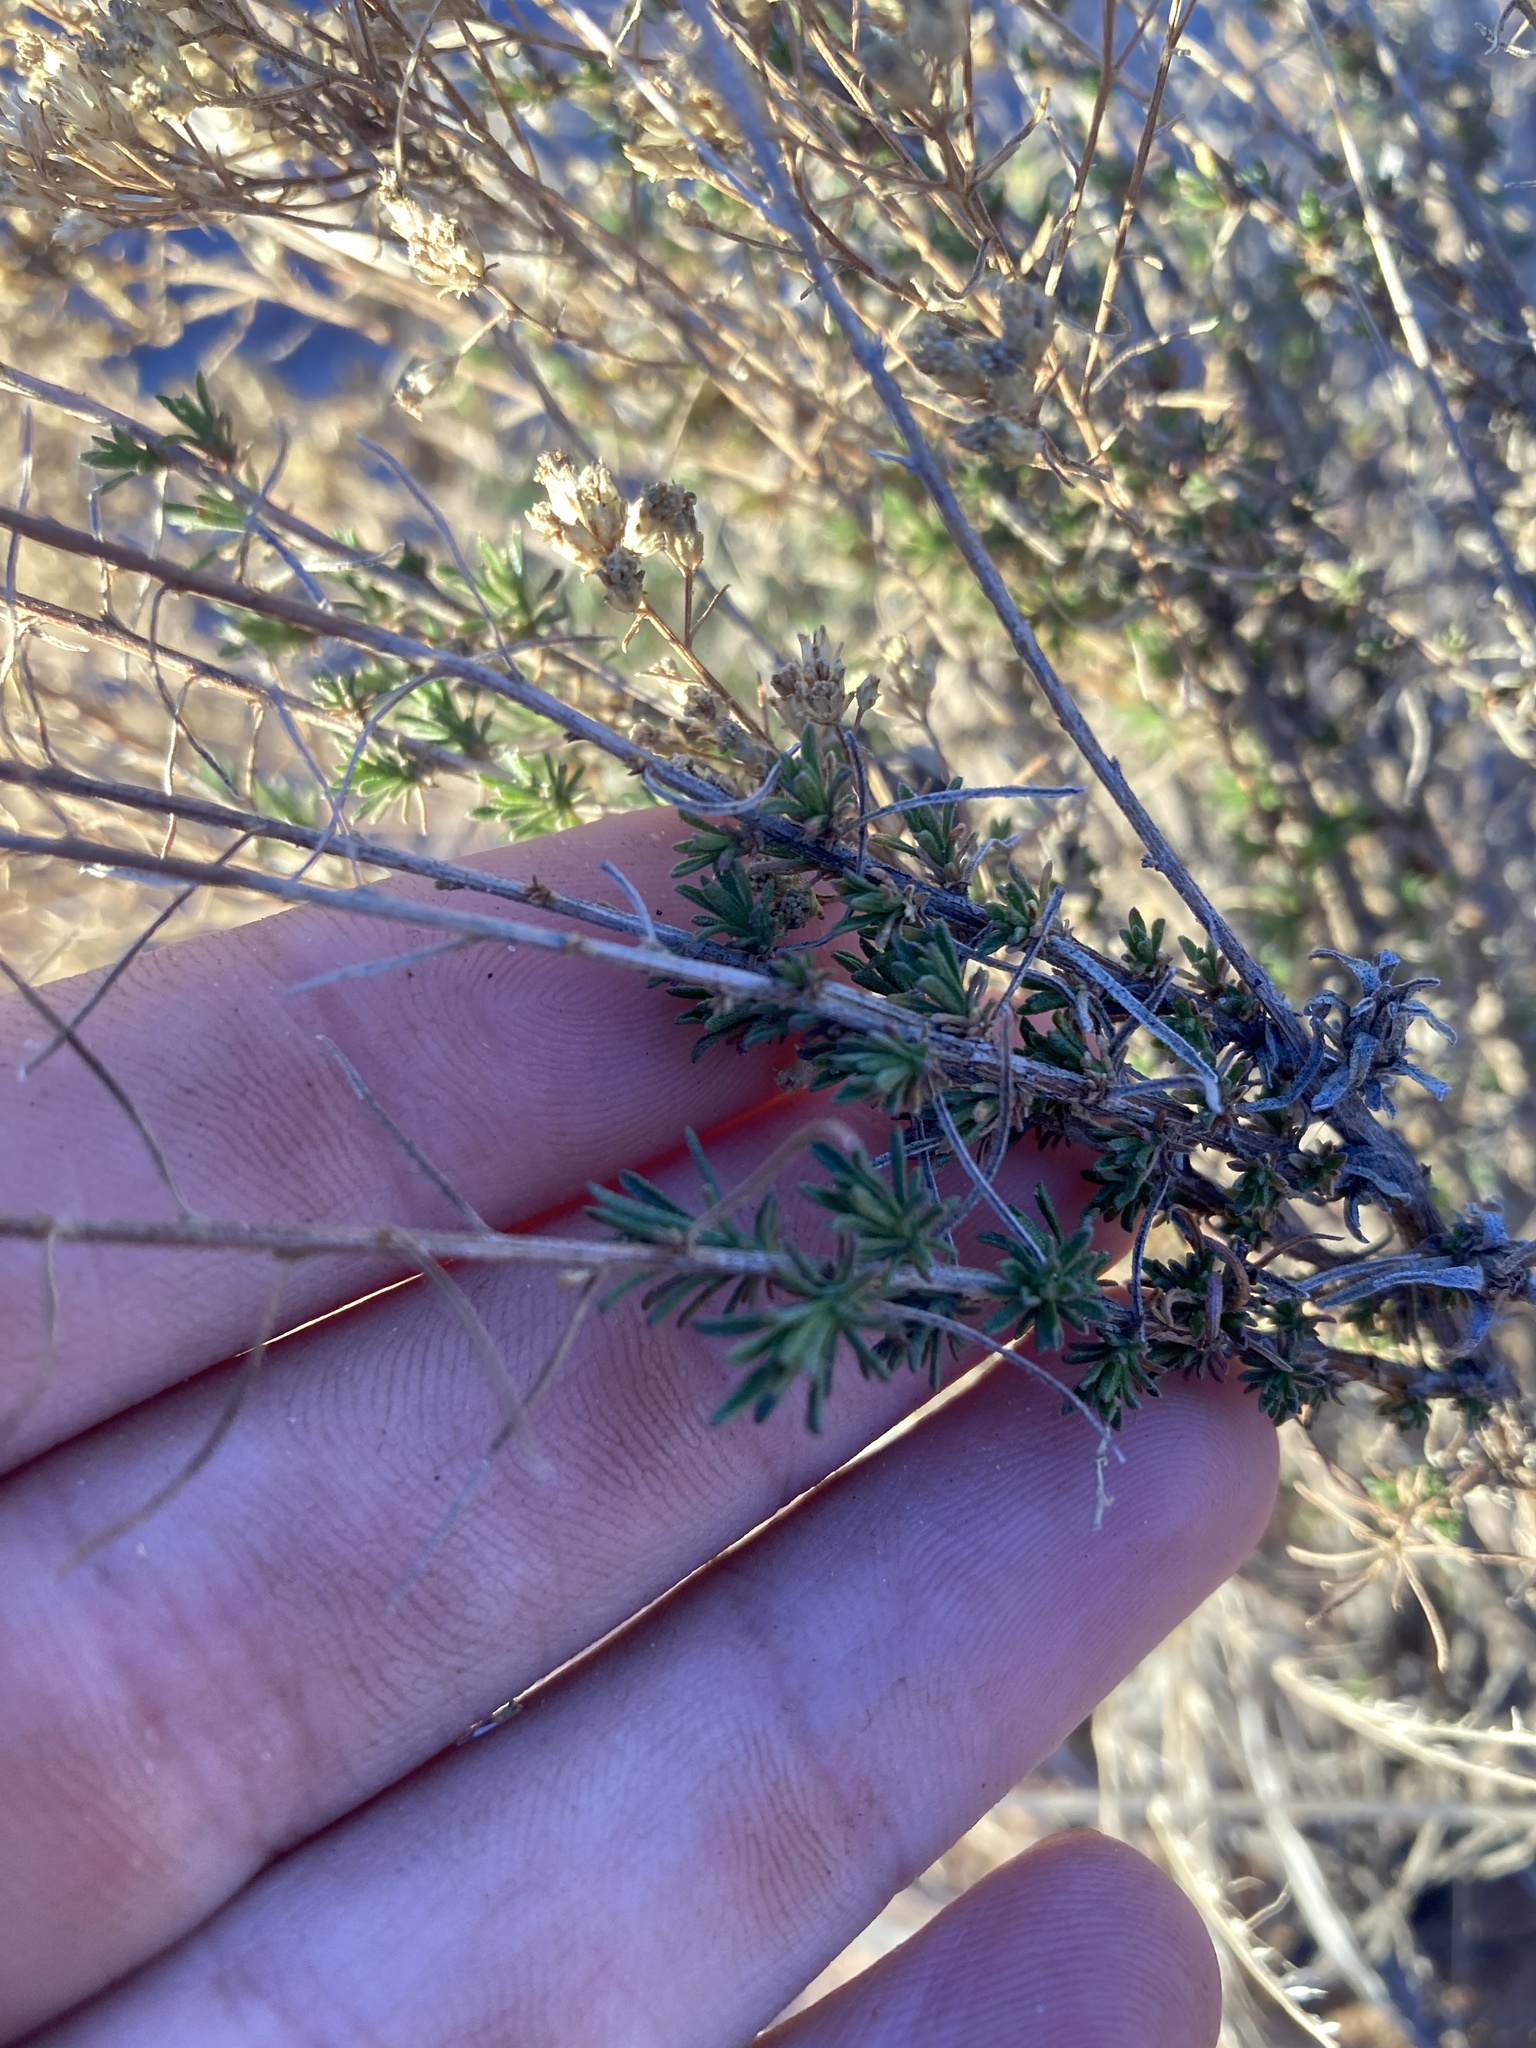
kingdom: Plantae
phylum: Tracheophyta
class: Magnoliopsida
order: Asterales
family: Asteraceae
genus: Gutierrezia
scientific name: Gutierrezia sarothrae
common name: Broom snakeweed
